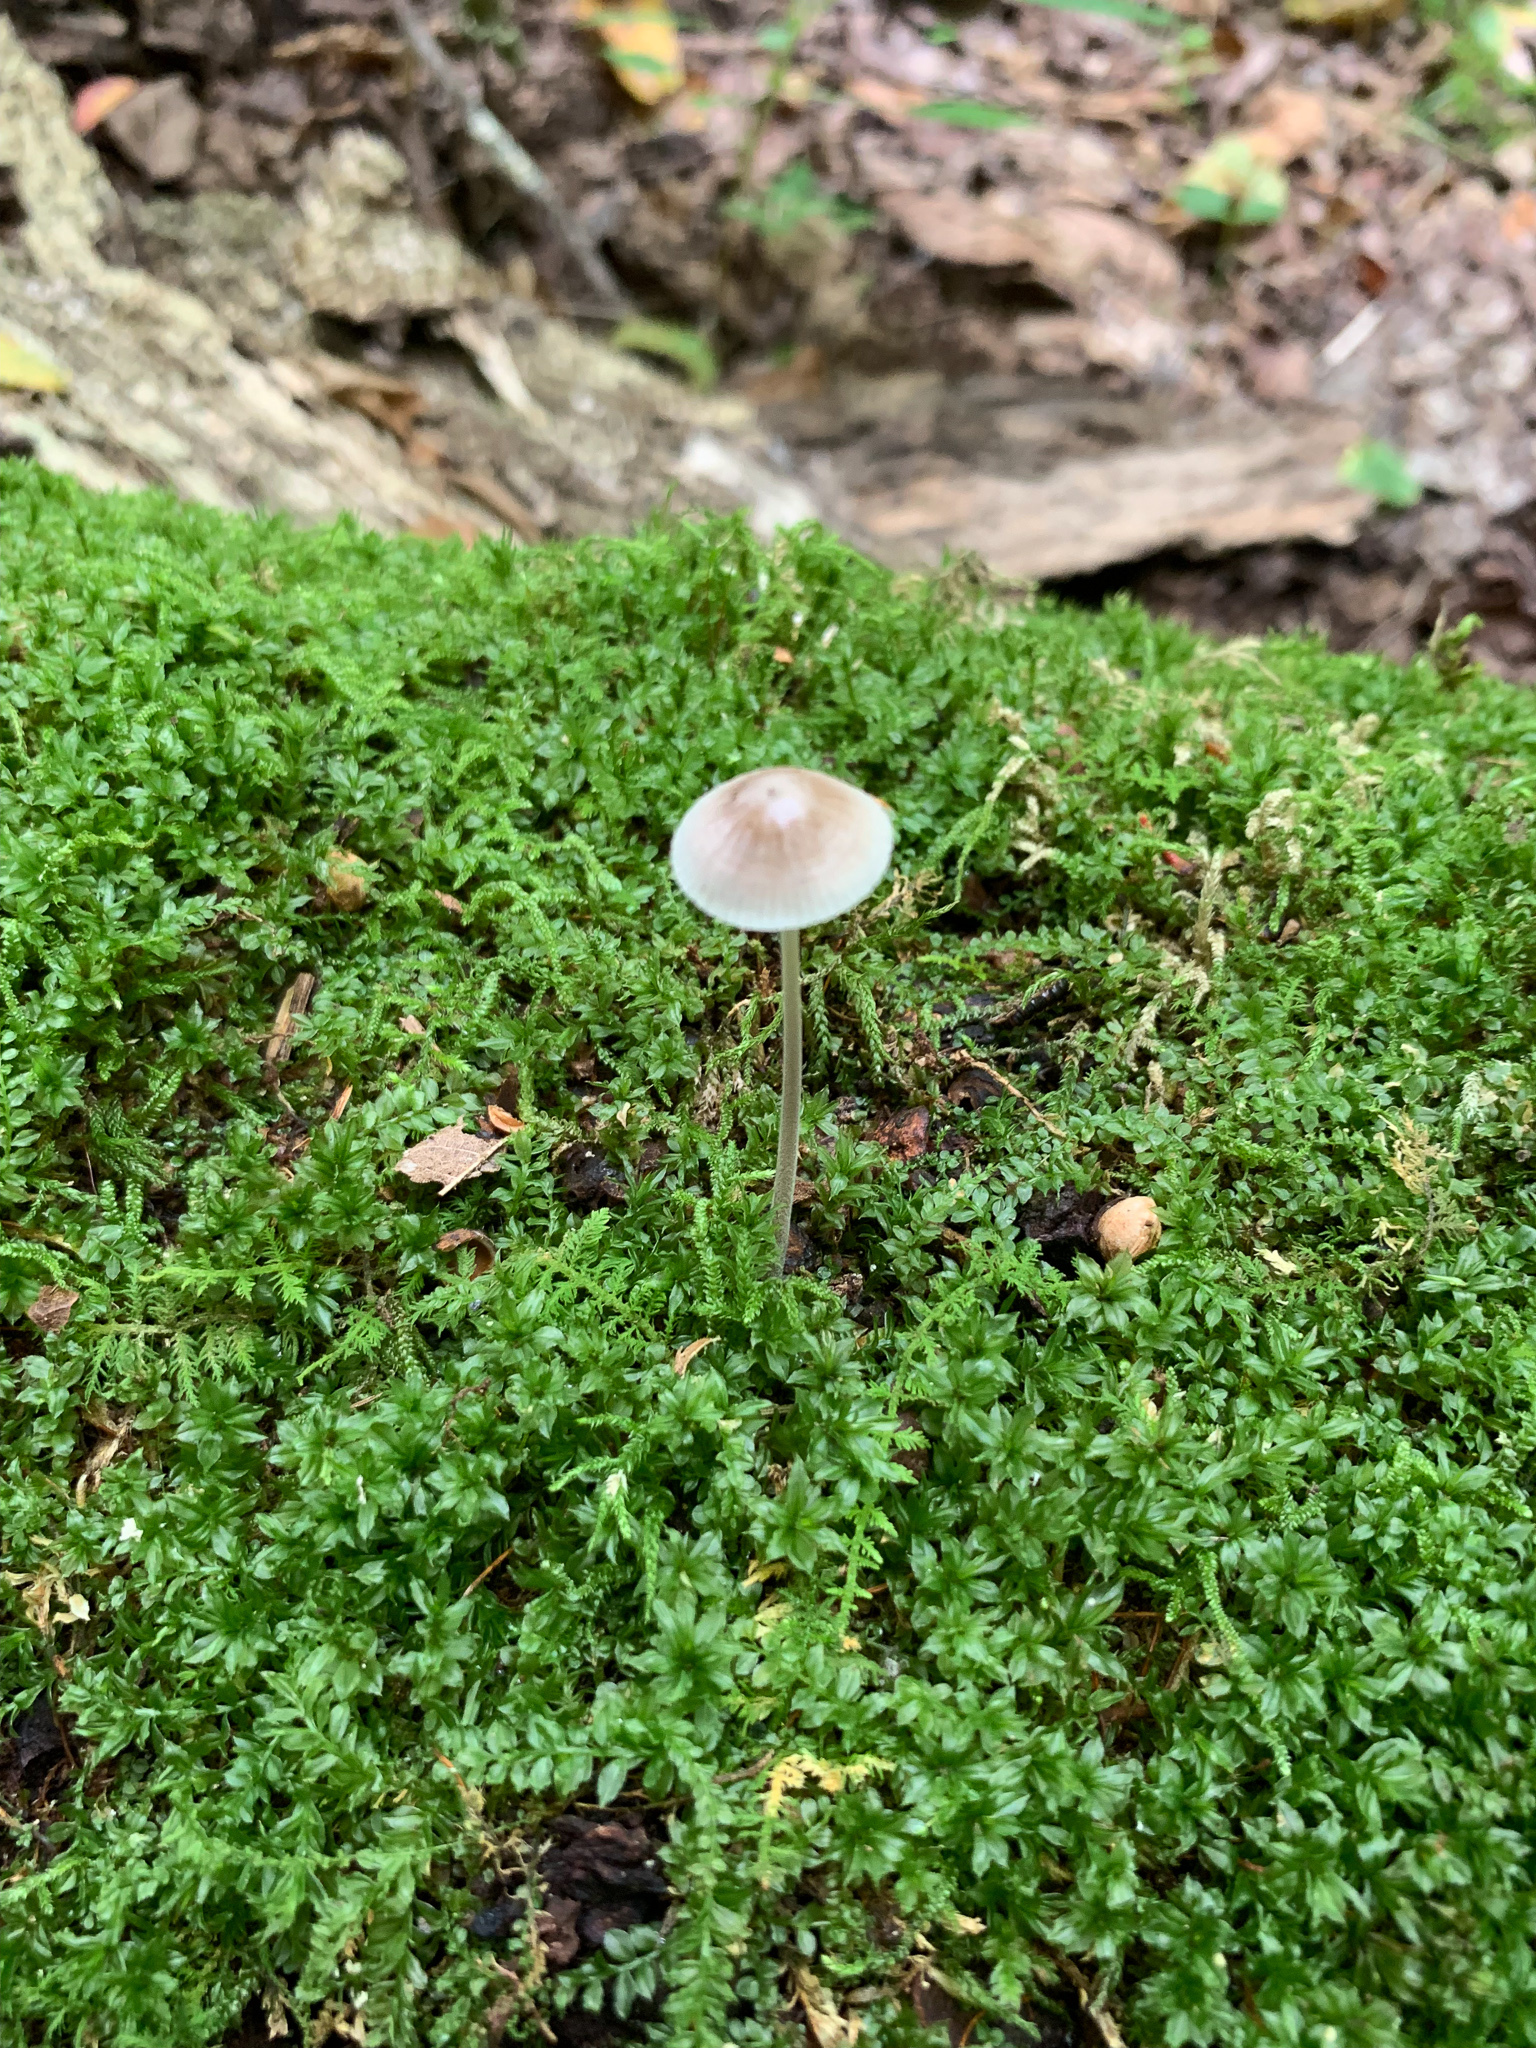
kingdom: Fungi
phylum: Basidiomycota
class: Agaricomycetes
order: Agaricales
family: Mycenaceae
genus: Mycena
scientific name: Mycena subcaerulea
